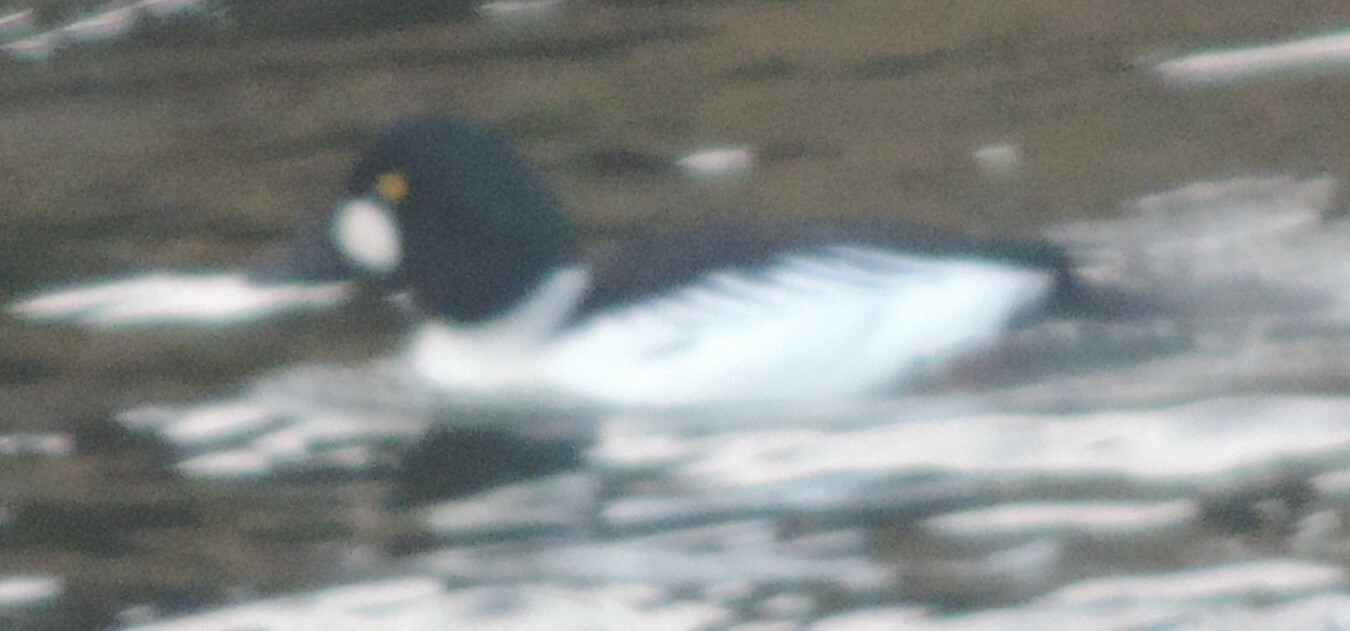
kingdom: Animalia
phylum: Chordata
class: Aves
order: Anseriformes
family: Anatidae
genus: Bucephala
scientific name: Bucephala clangula
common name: Common goldeneye
